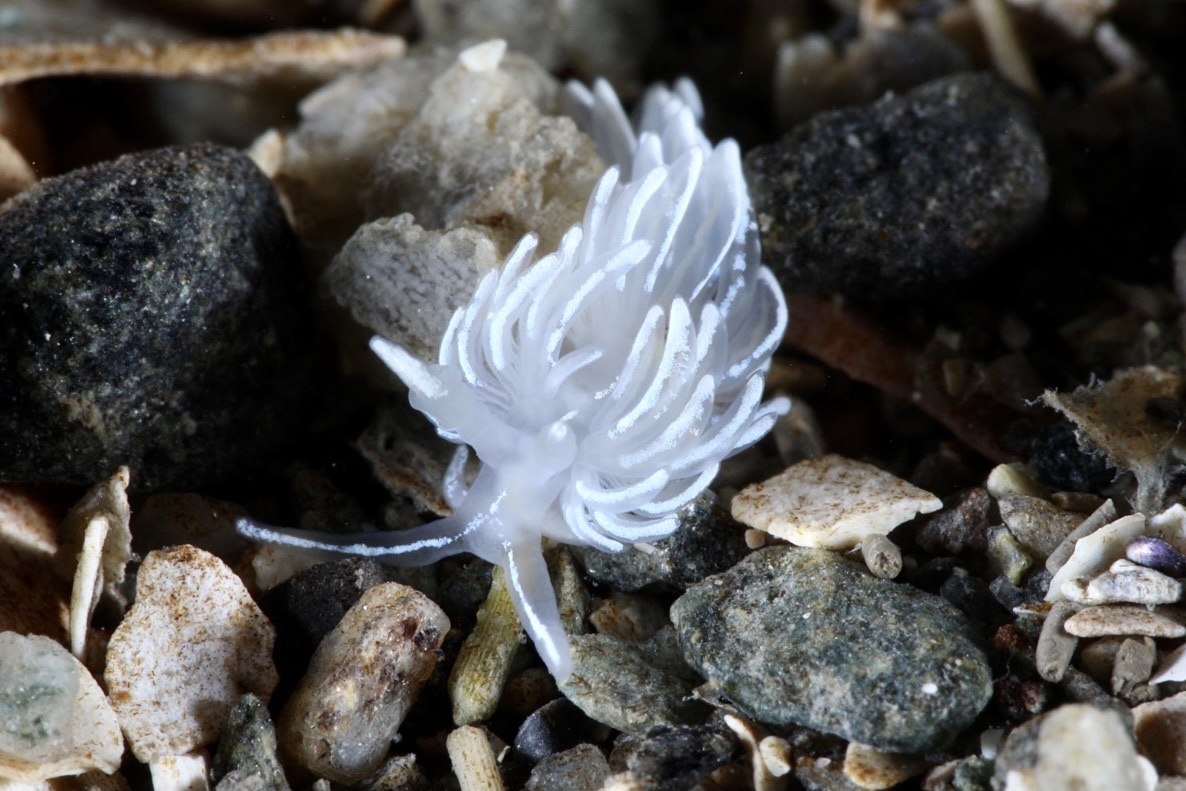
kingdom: Animalia
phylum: Mollusca
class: Gastropoda
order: Nudibranchia
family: Facelinidae
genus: Favorinus
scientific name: Favorinus blianus
